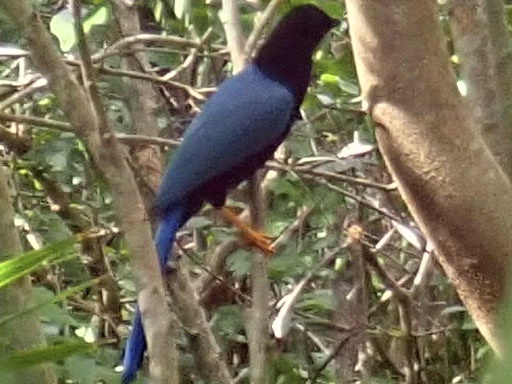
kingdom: Animalia
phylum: Chordata
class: Aves
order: Passeriformes
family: Corvidae
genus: Cyanocorax
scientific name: Cyanocorax yucatanicus
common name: Yucatan jay
